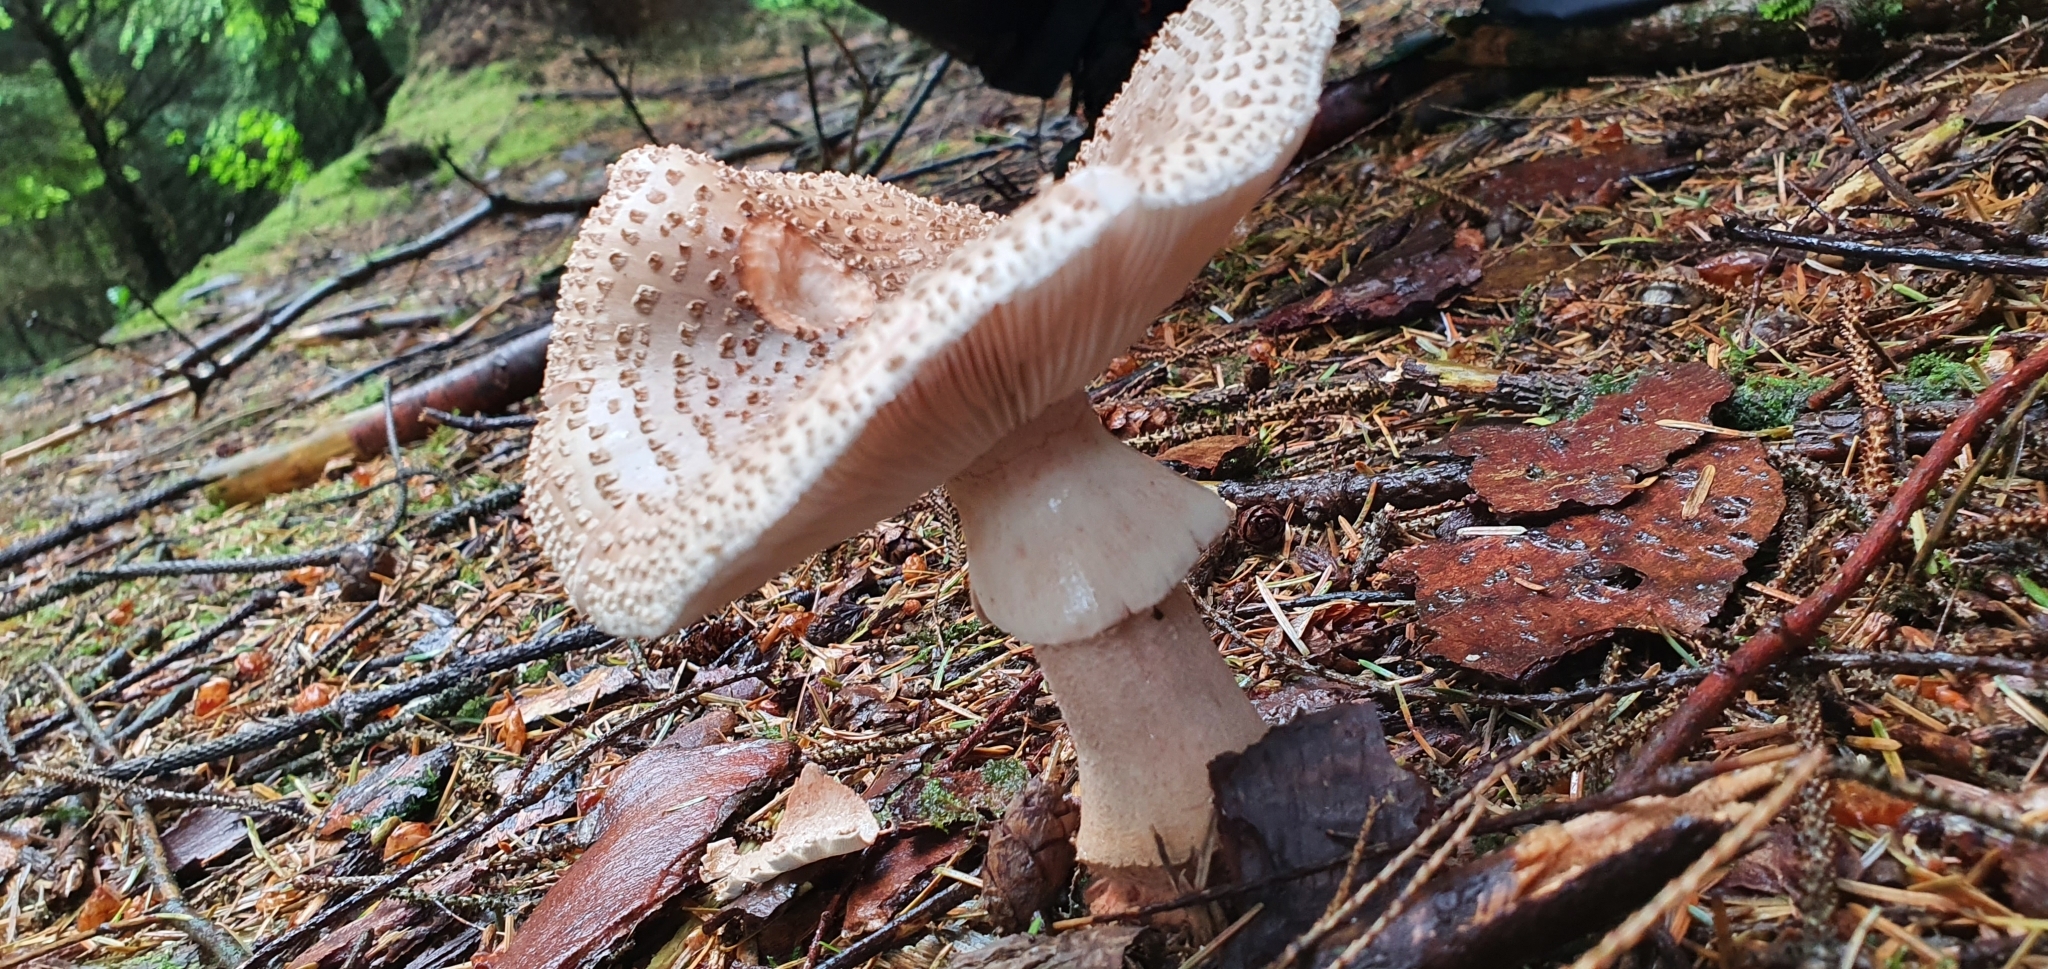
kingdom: Fungi
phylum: Basidiomycota
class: Agaricomycetes
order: Agaricales
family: Amanitaceae
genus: Amanita
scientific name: Amanita rubescens
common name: Blusher
